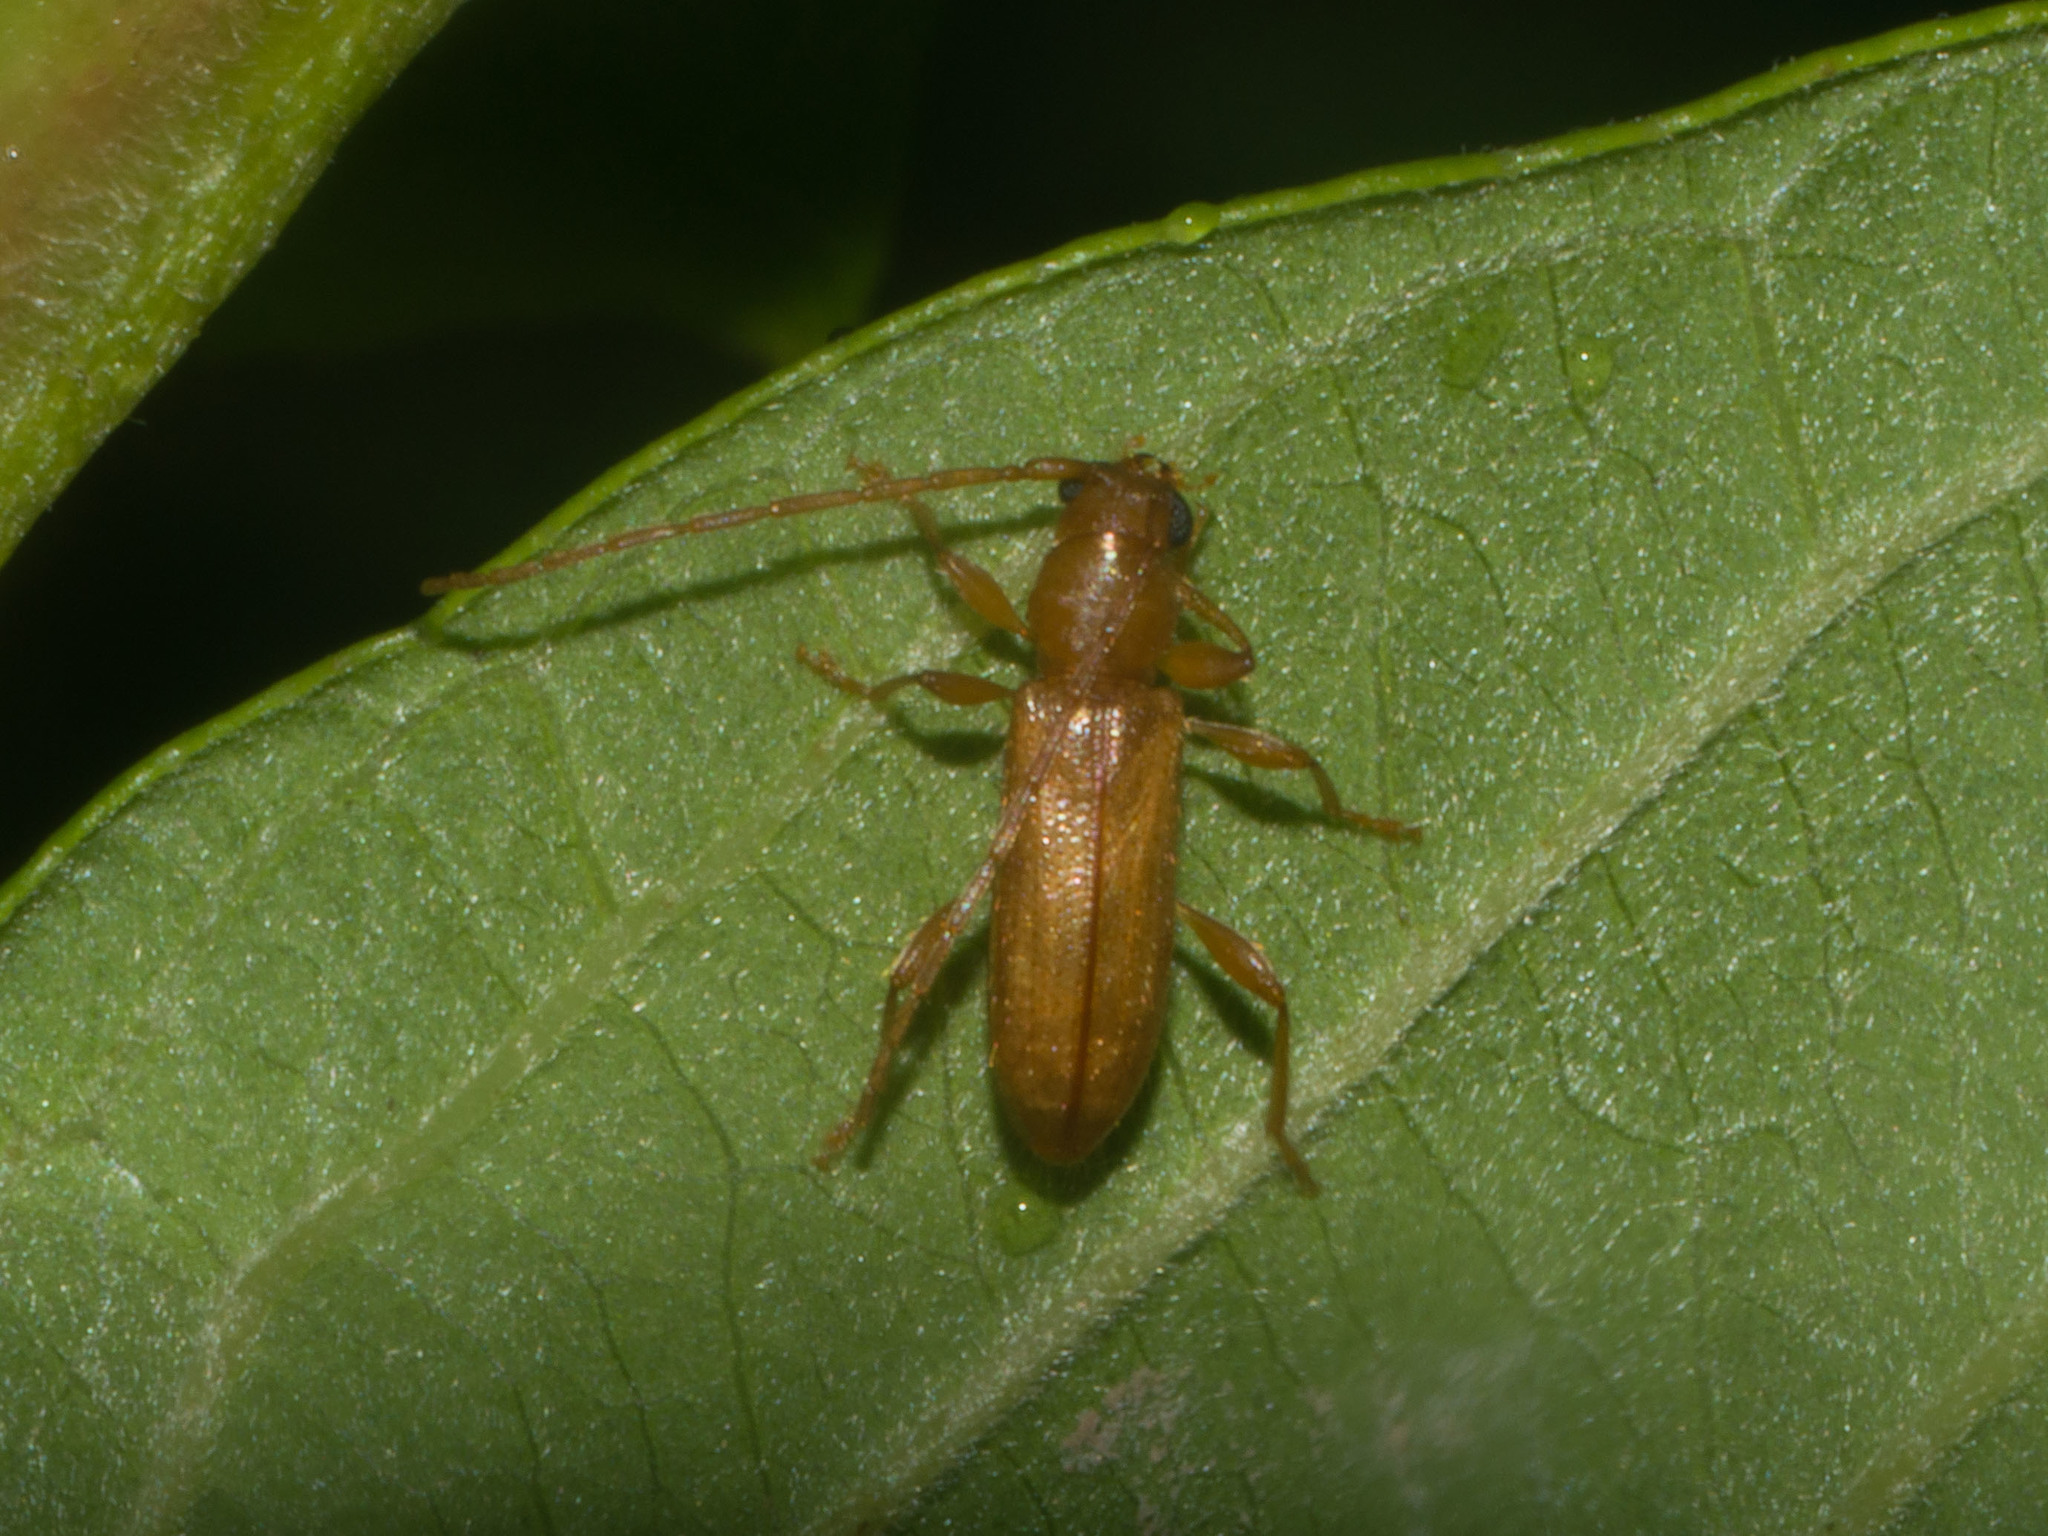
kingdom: Animalia
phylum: Arthropoda
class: Insecta
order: Coleoptera
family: Cerambycidae
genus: Curtomerus
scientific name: Curtomerus flavus
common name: Curtomerus long-horned beetle
